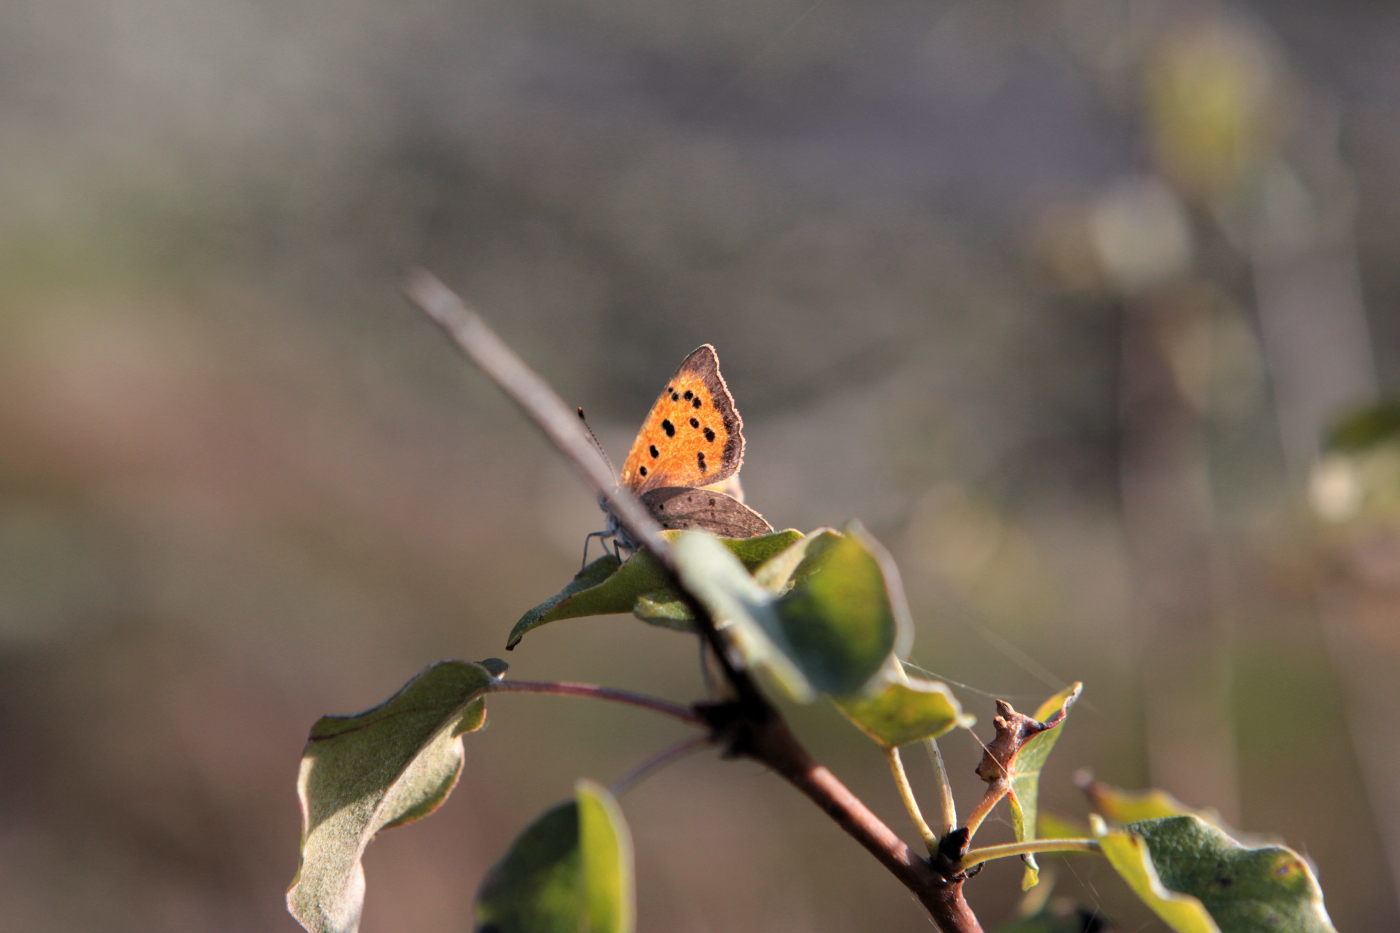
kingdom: Animalia
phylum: Arthropoda
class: Insecta
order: Lepidoptera
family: Lycaenidae
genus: Lycaena
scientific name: Lycaena phlaeas
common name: Small copper
